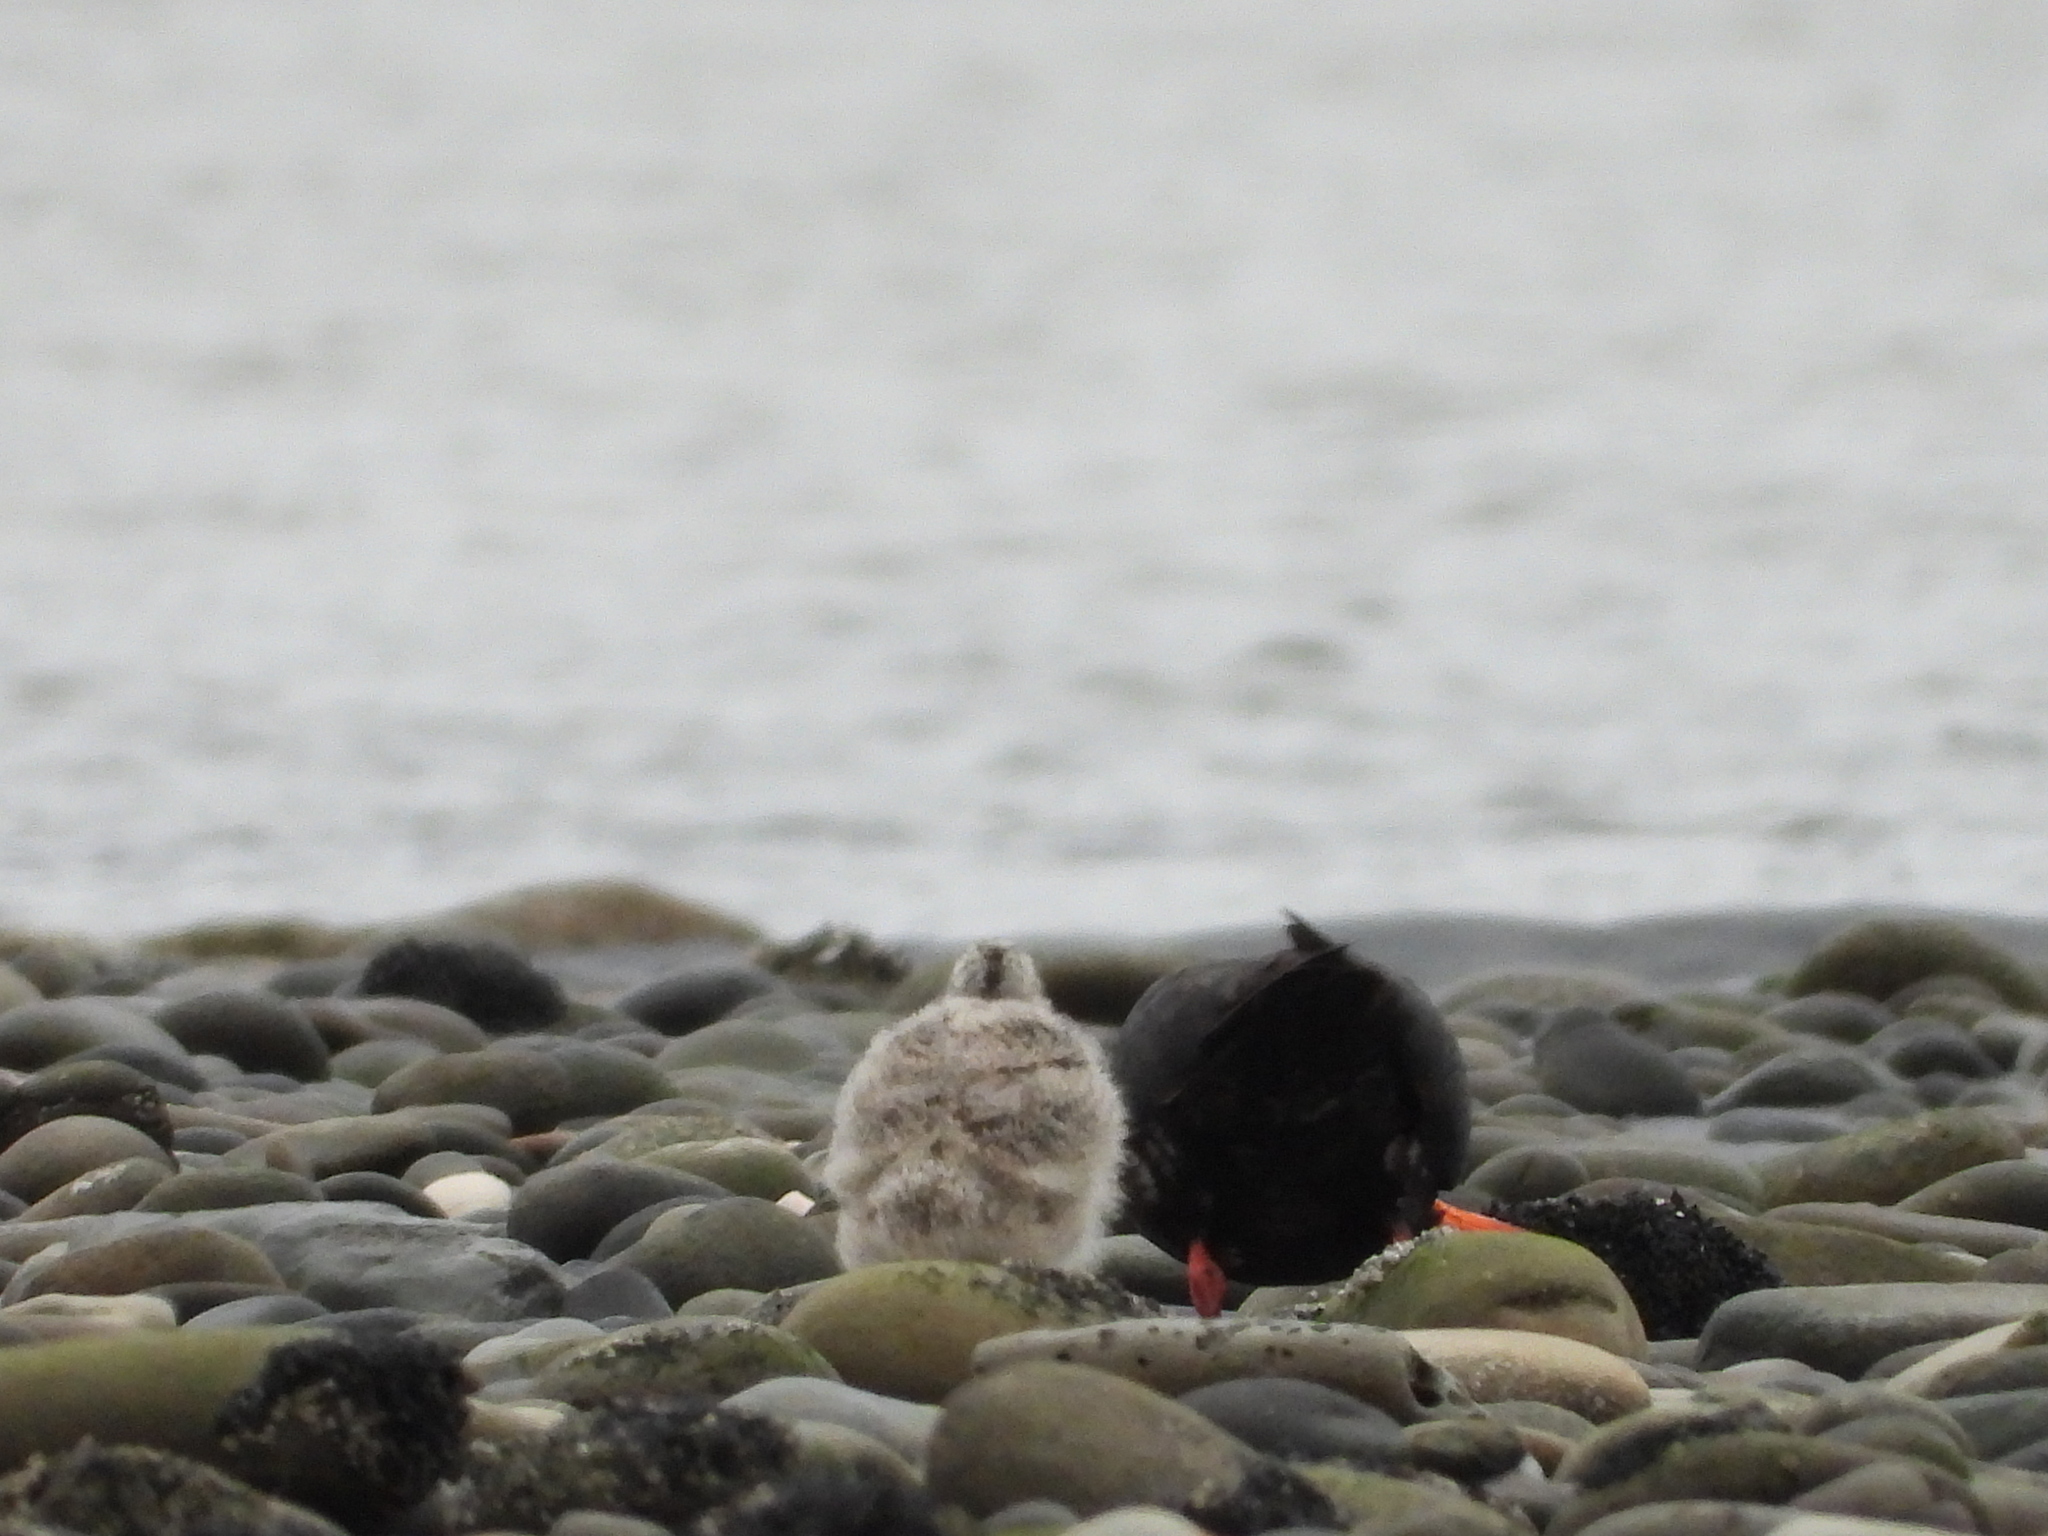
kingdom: Animalia
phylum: Chordata
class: Aves
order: Charadriiformes
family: Haematopodidae
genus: Haematopus
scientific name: Haematopus unicolor
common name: Variable oystercatcher
